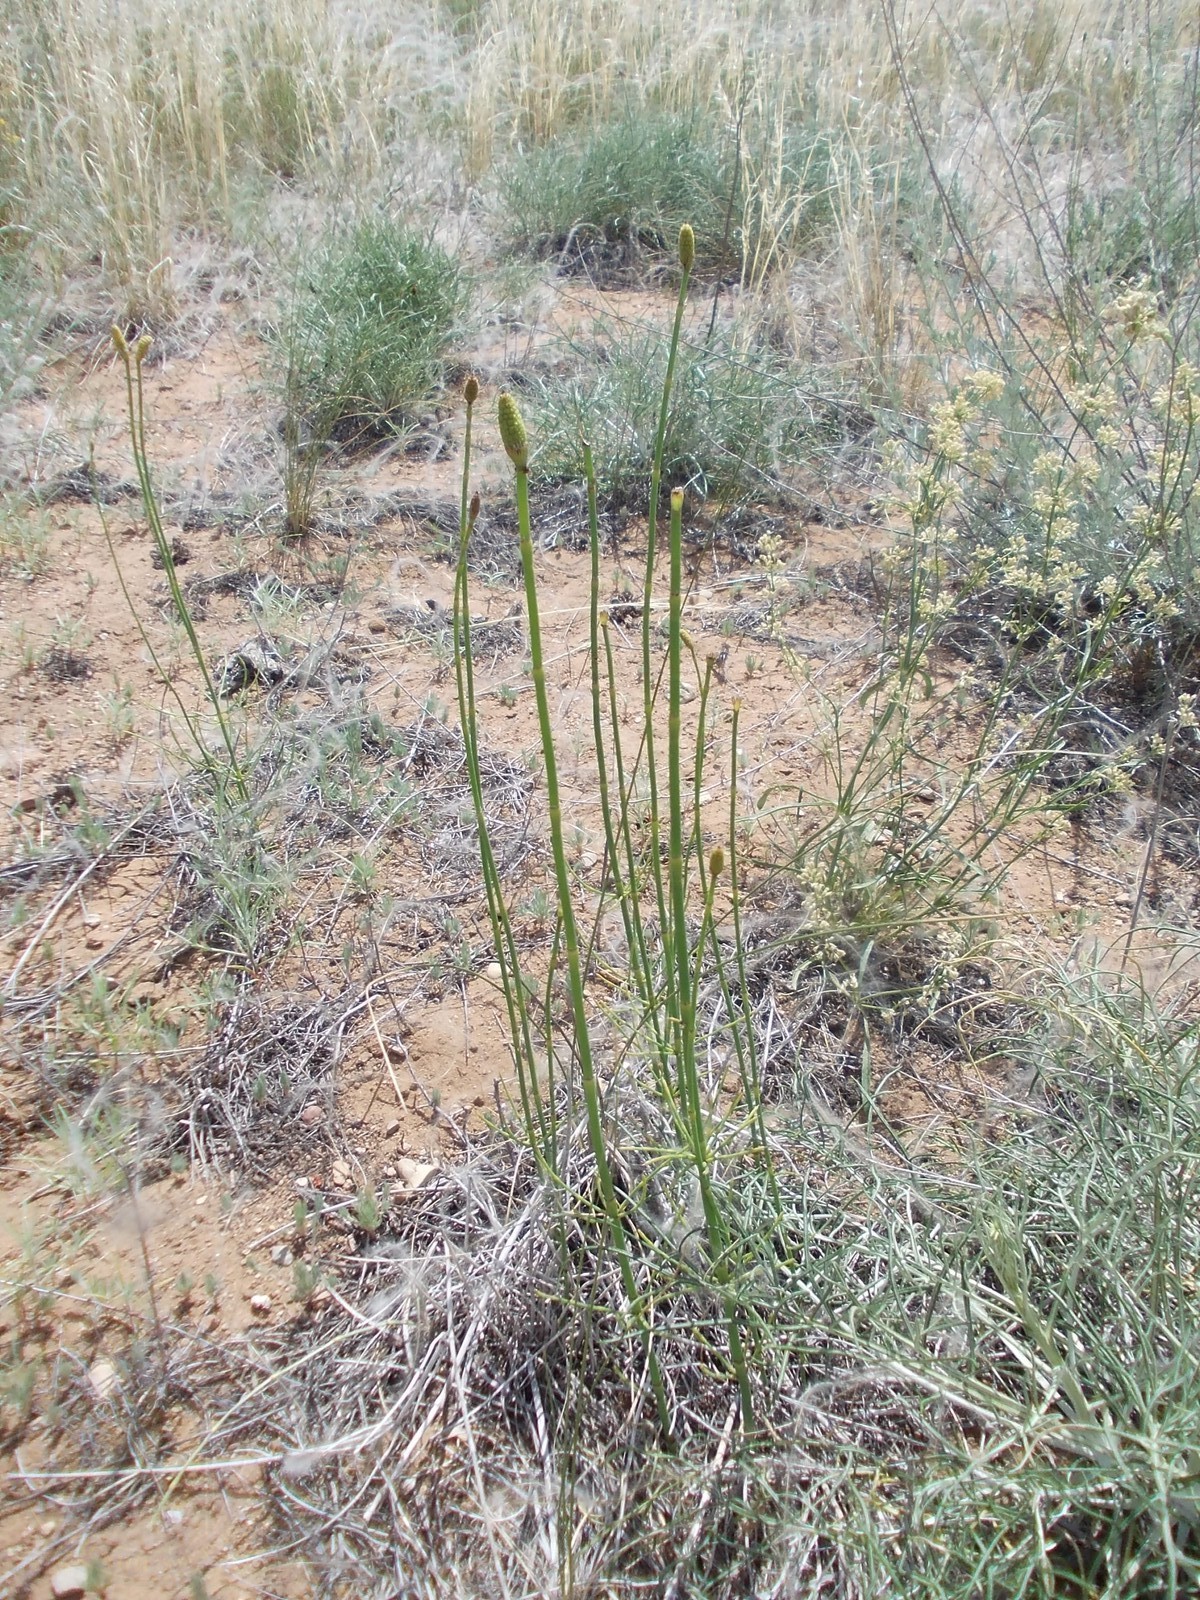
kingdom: Plantae
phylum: Tracheophyta
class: Polypodiopsida
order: Equisetales
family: Equisetaceae
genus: Equisetum
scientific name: Equisetum ramosissimum
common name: Branched horsetail
